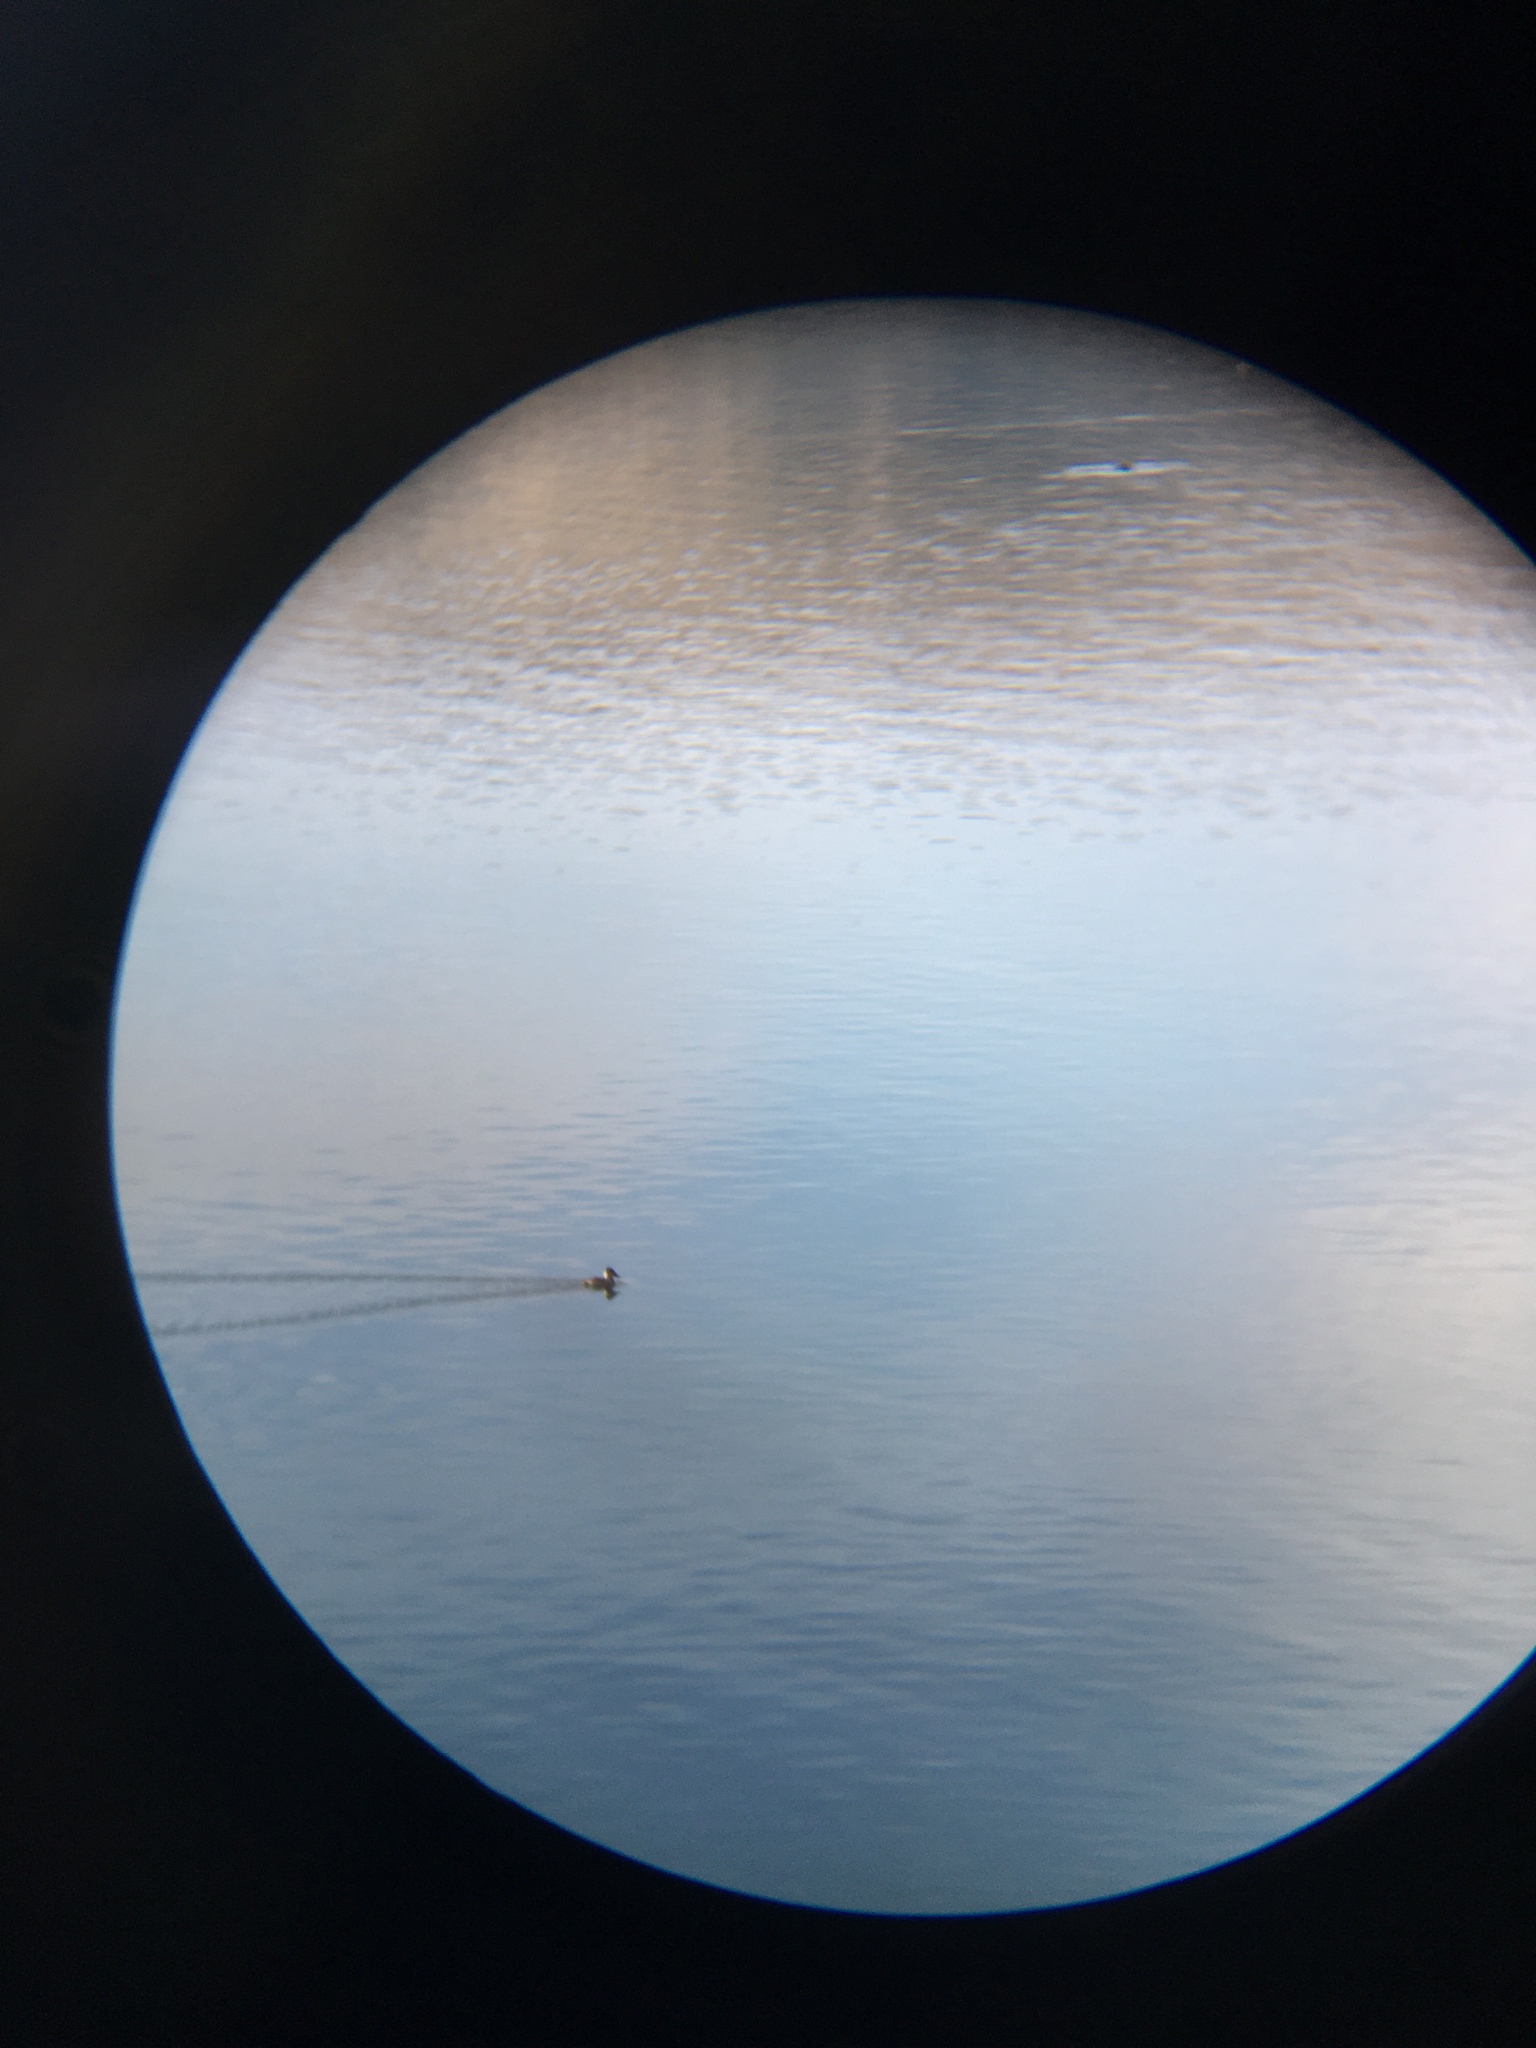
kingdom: Animalia
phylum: Chordata
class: Aves
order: Anseriformes
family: Anatidae
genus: Oxyura
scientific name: Oxyura jamaicensis
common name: Ruddy duck
